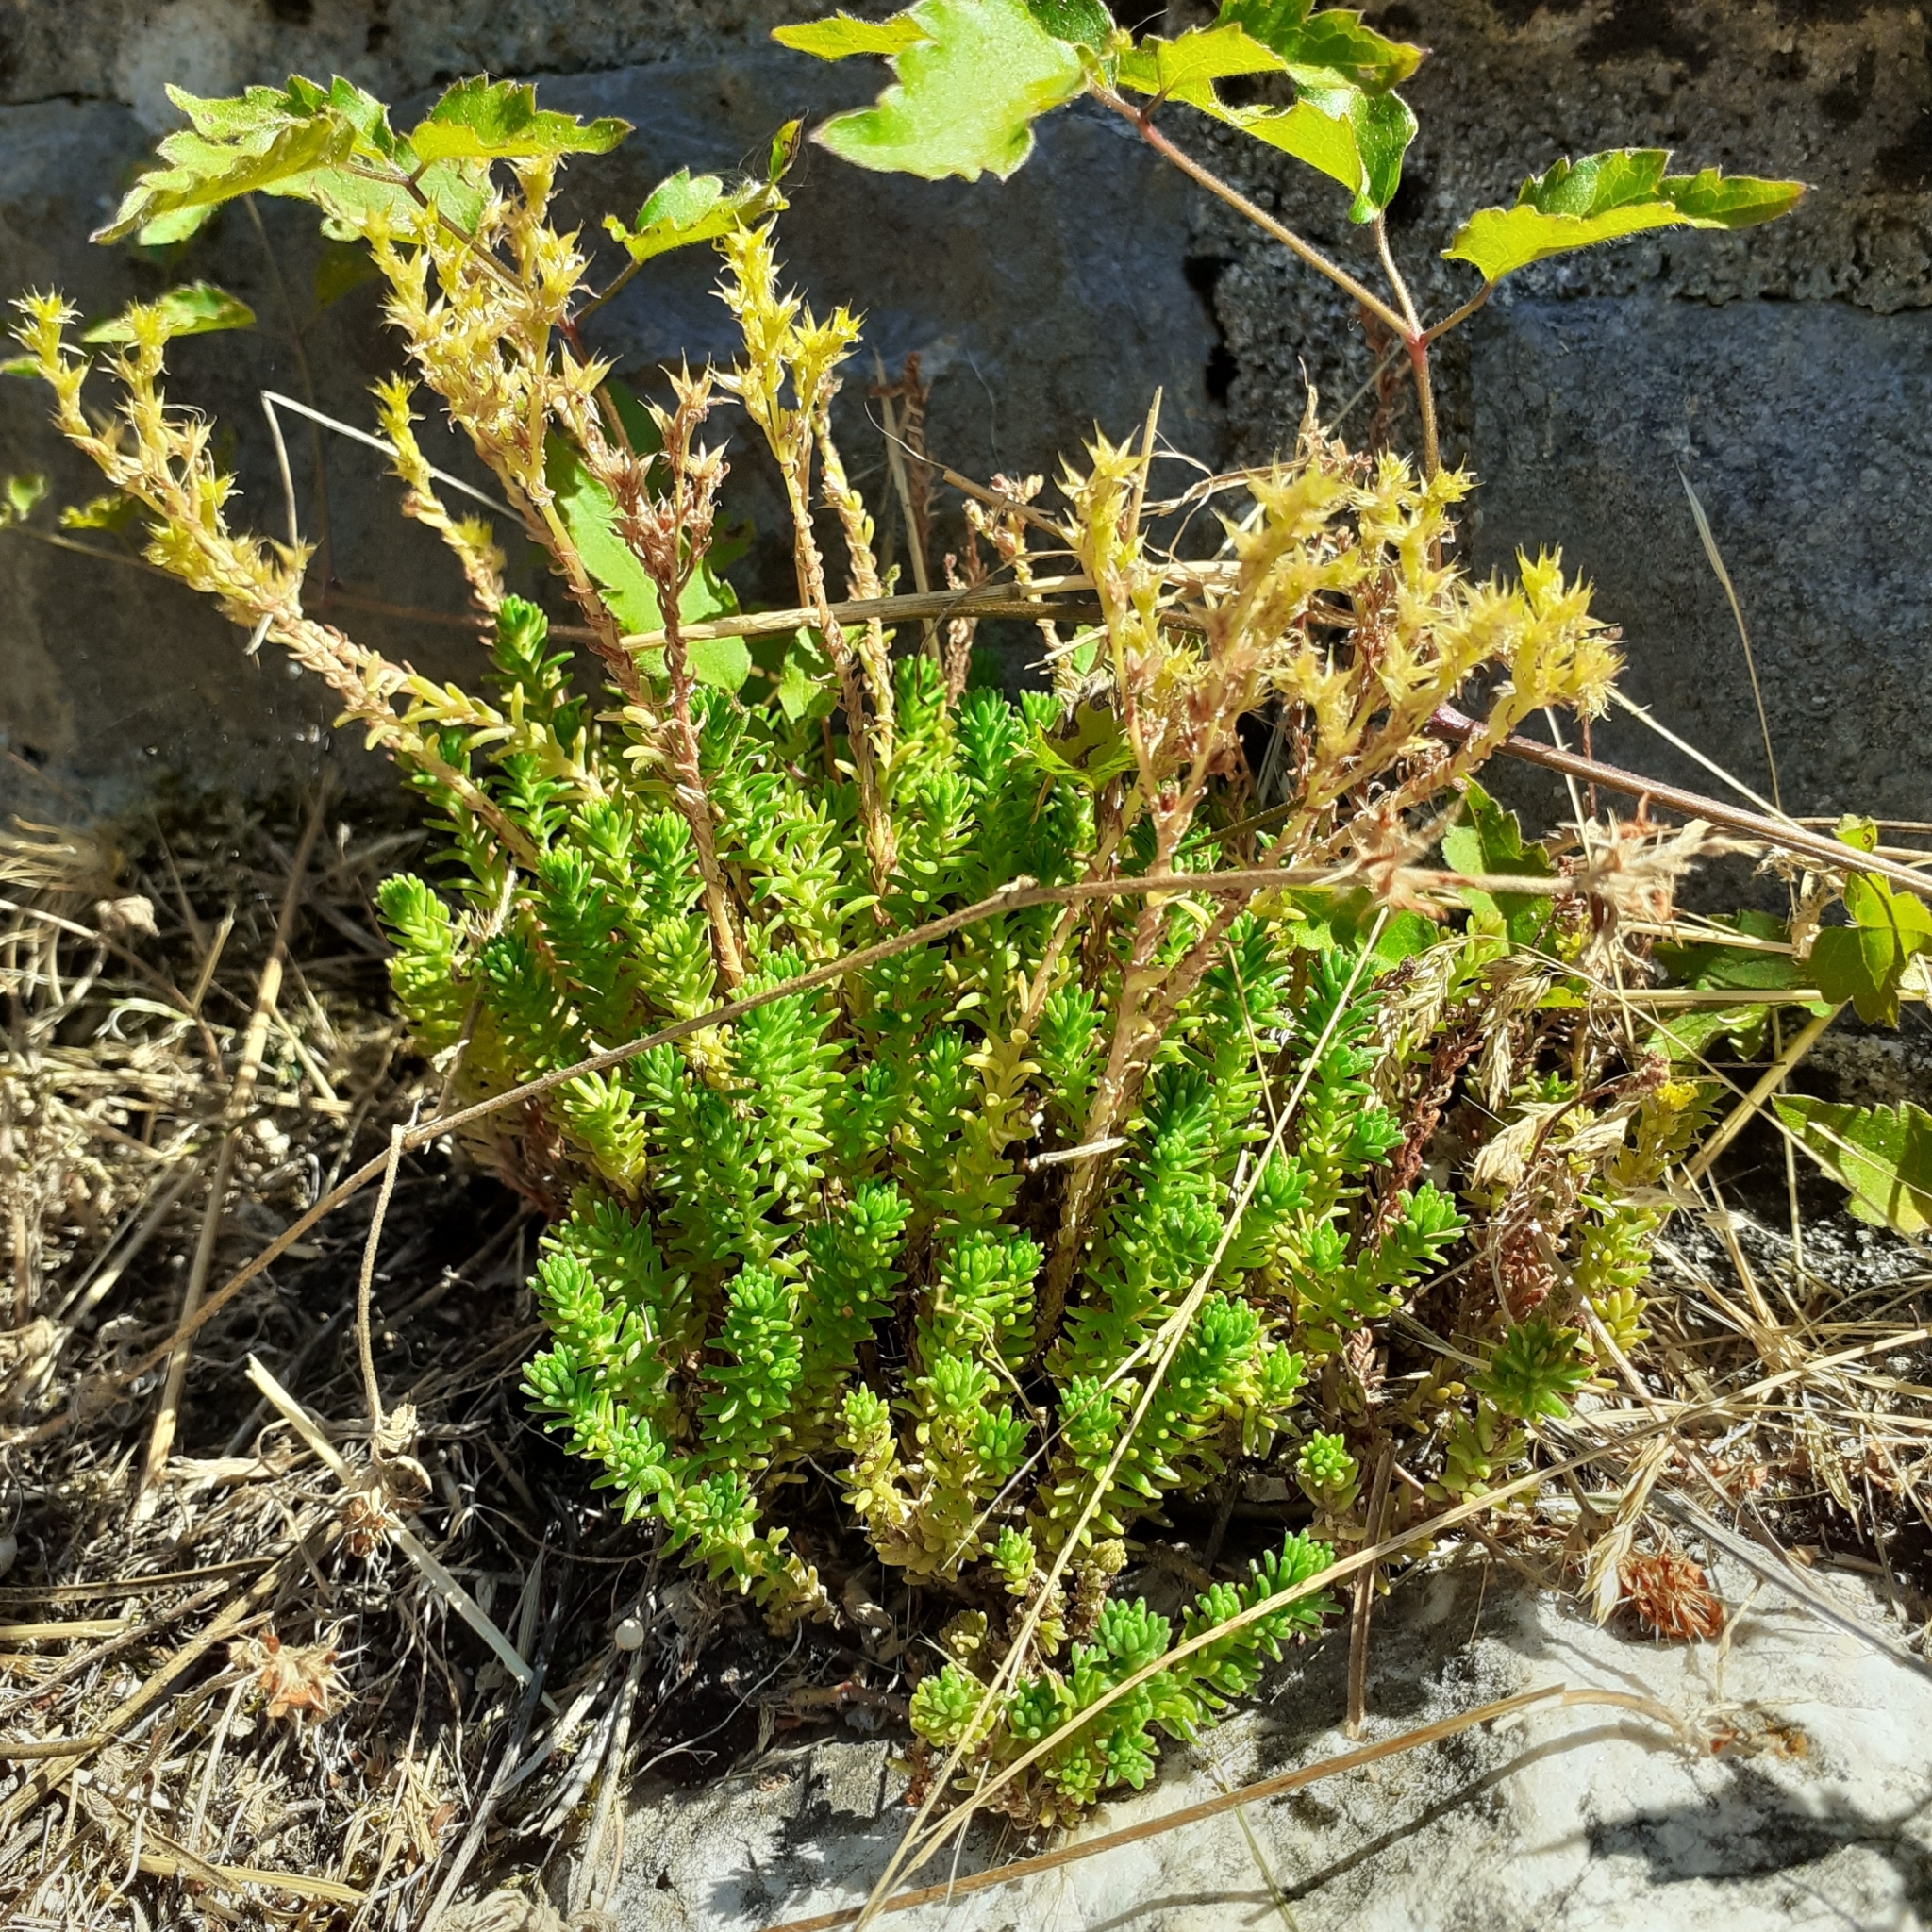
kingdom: Plantae
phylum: Tracheophyta
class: Magnoliopsida
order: Saxifragales
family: Crassulaceae
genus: Sedum
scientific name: Sedum sexangulare
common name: Tasteless stonecrop
